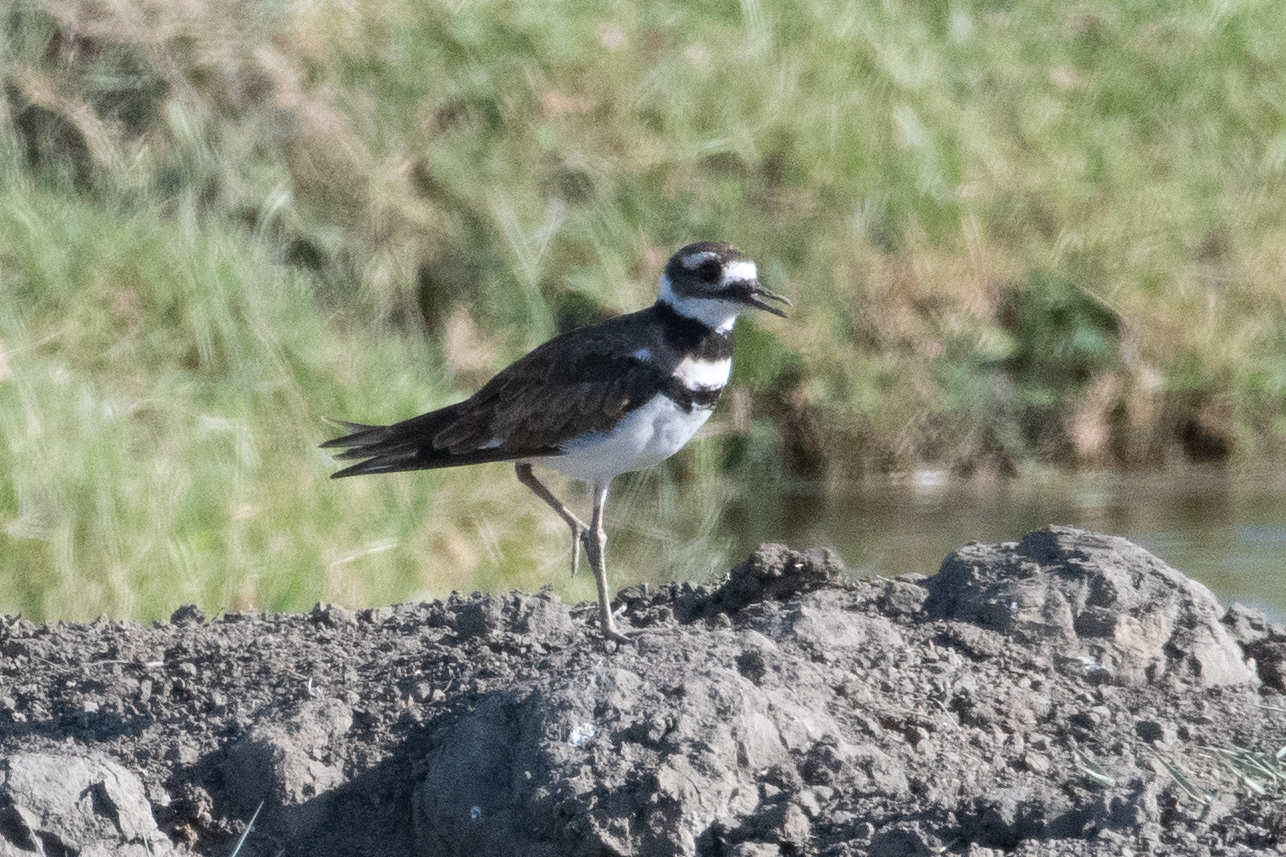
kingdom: Animalia
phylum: Chordata
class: Aves
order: Charadriiformes
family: Charadriidae
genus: Charadrius
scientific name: Charadrius vociferus
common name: Killdeer
